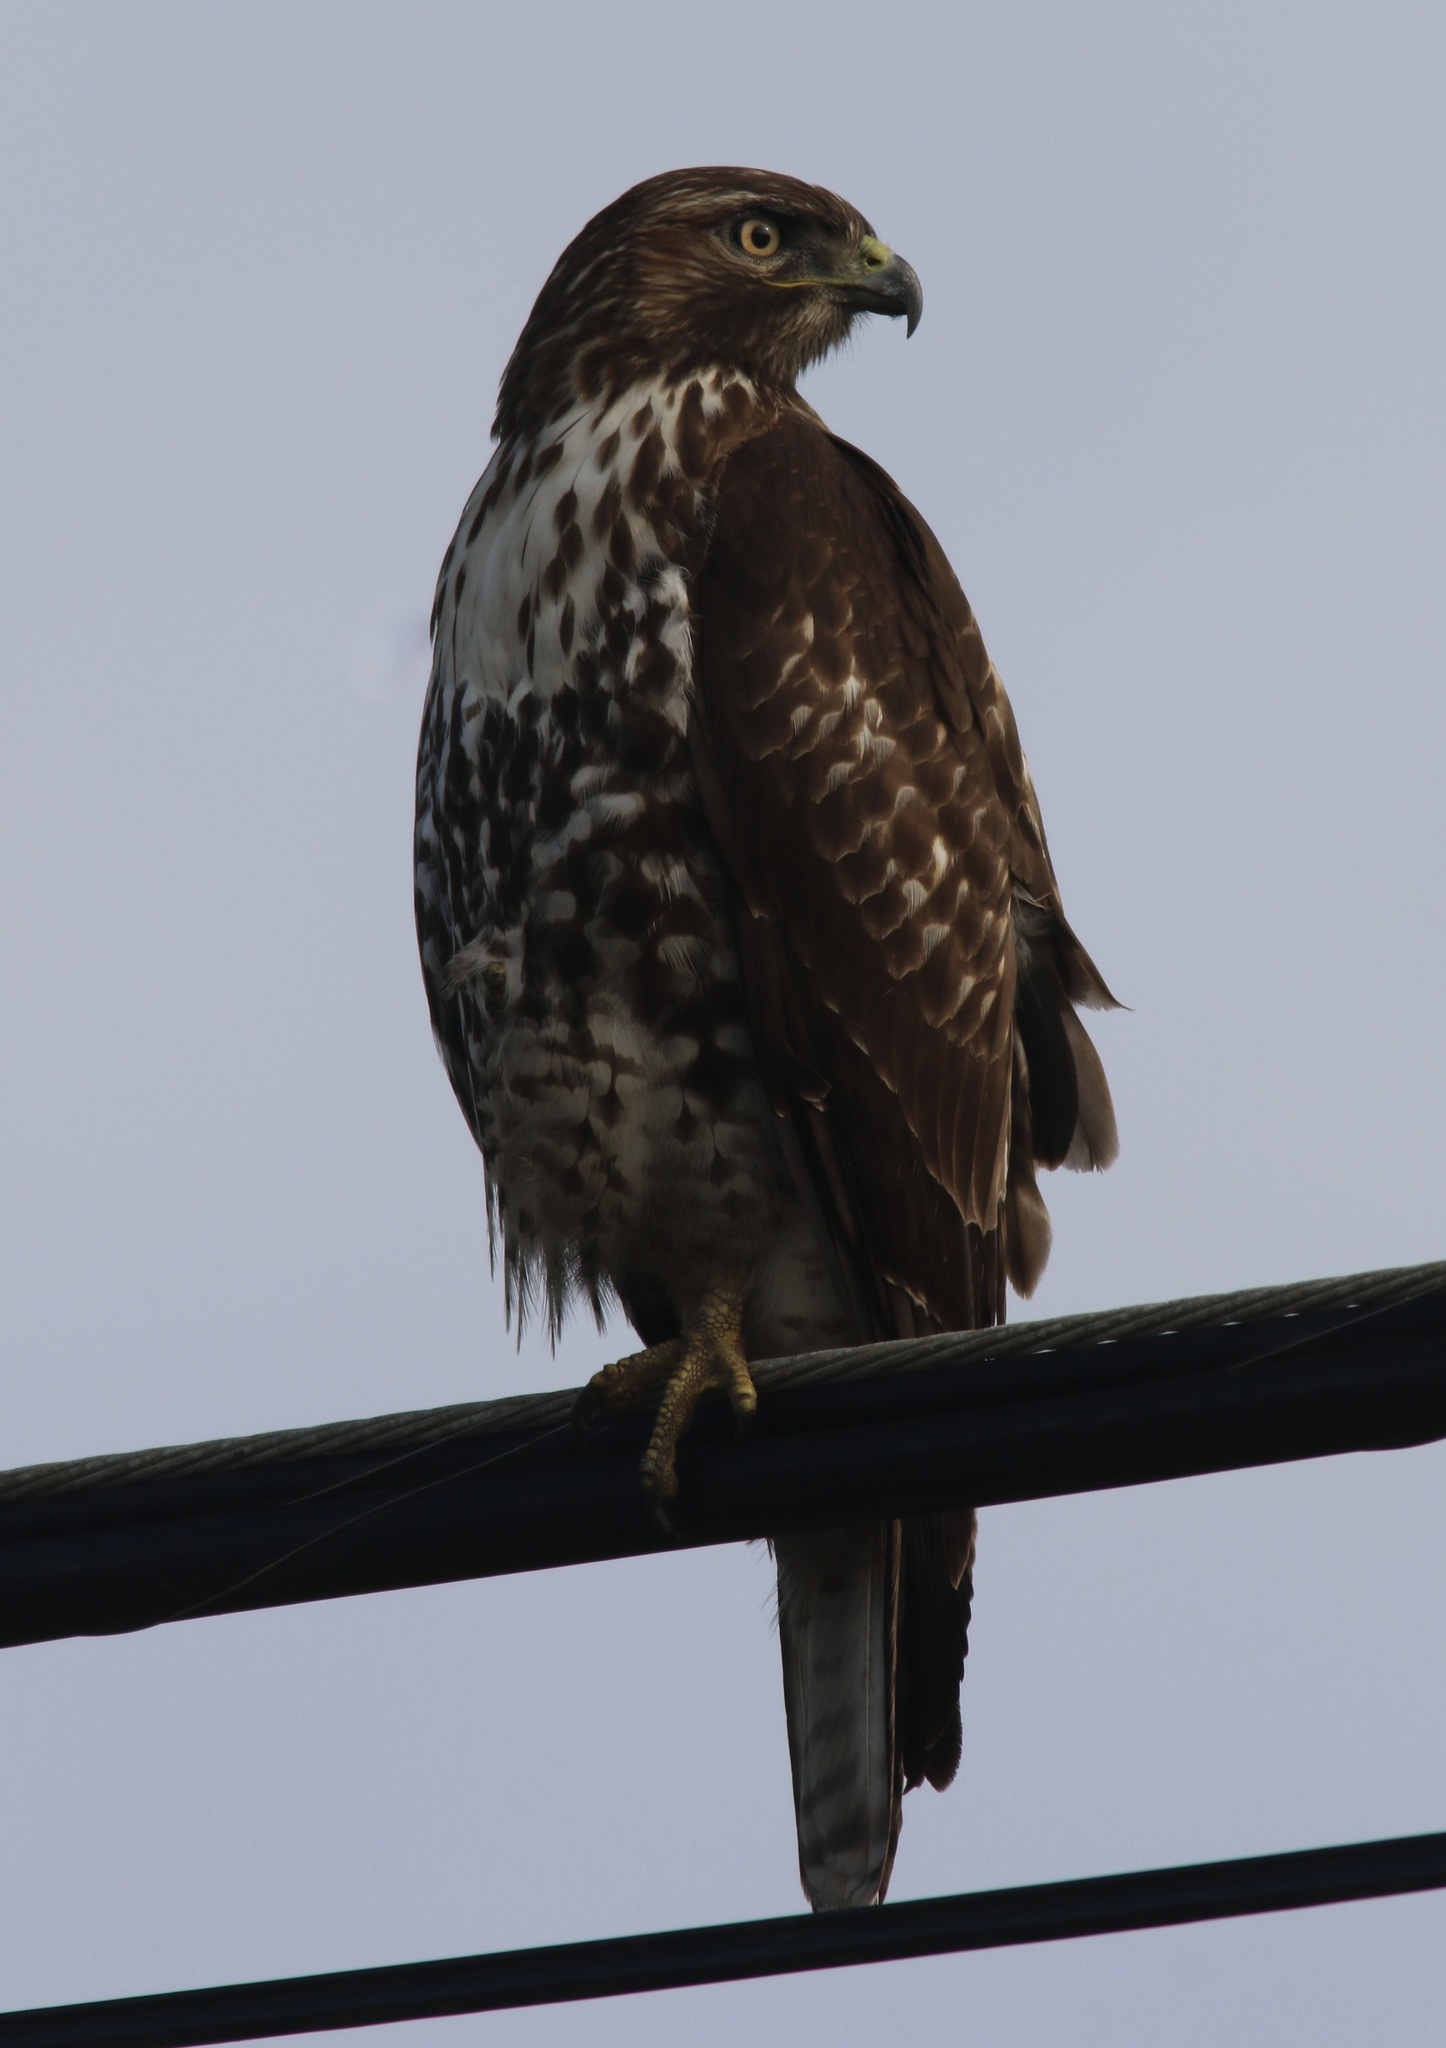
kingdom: Animalia
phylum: Chordata
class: Aves
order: Accipitriformes
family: Accipitridae
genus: Buteo
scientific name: Buteo jamaicensis
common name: Red-tailed hawk
